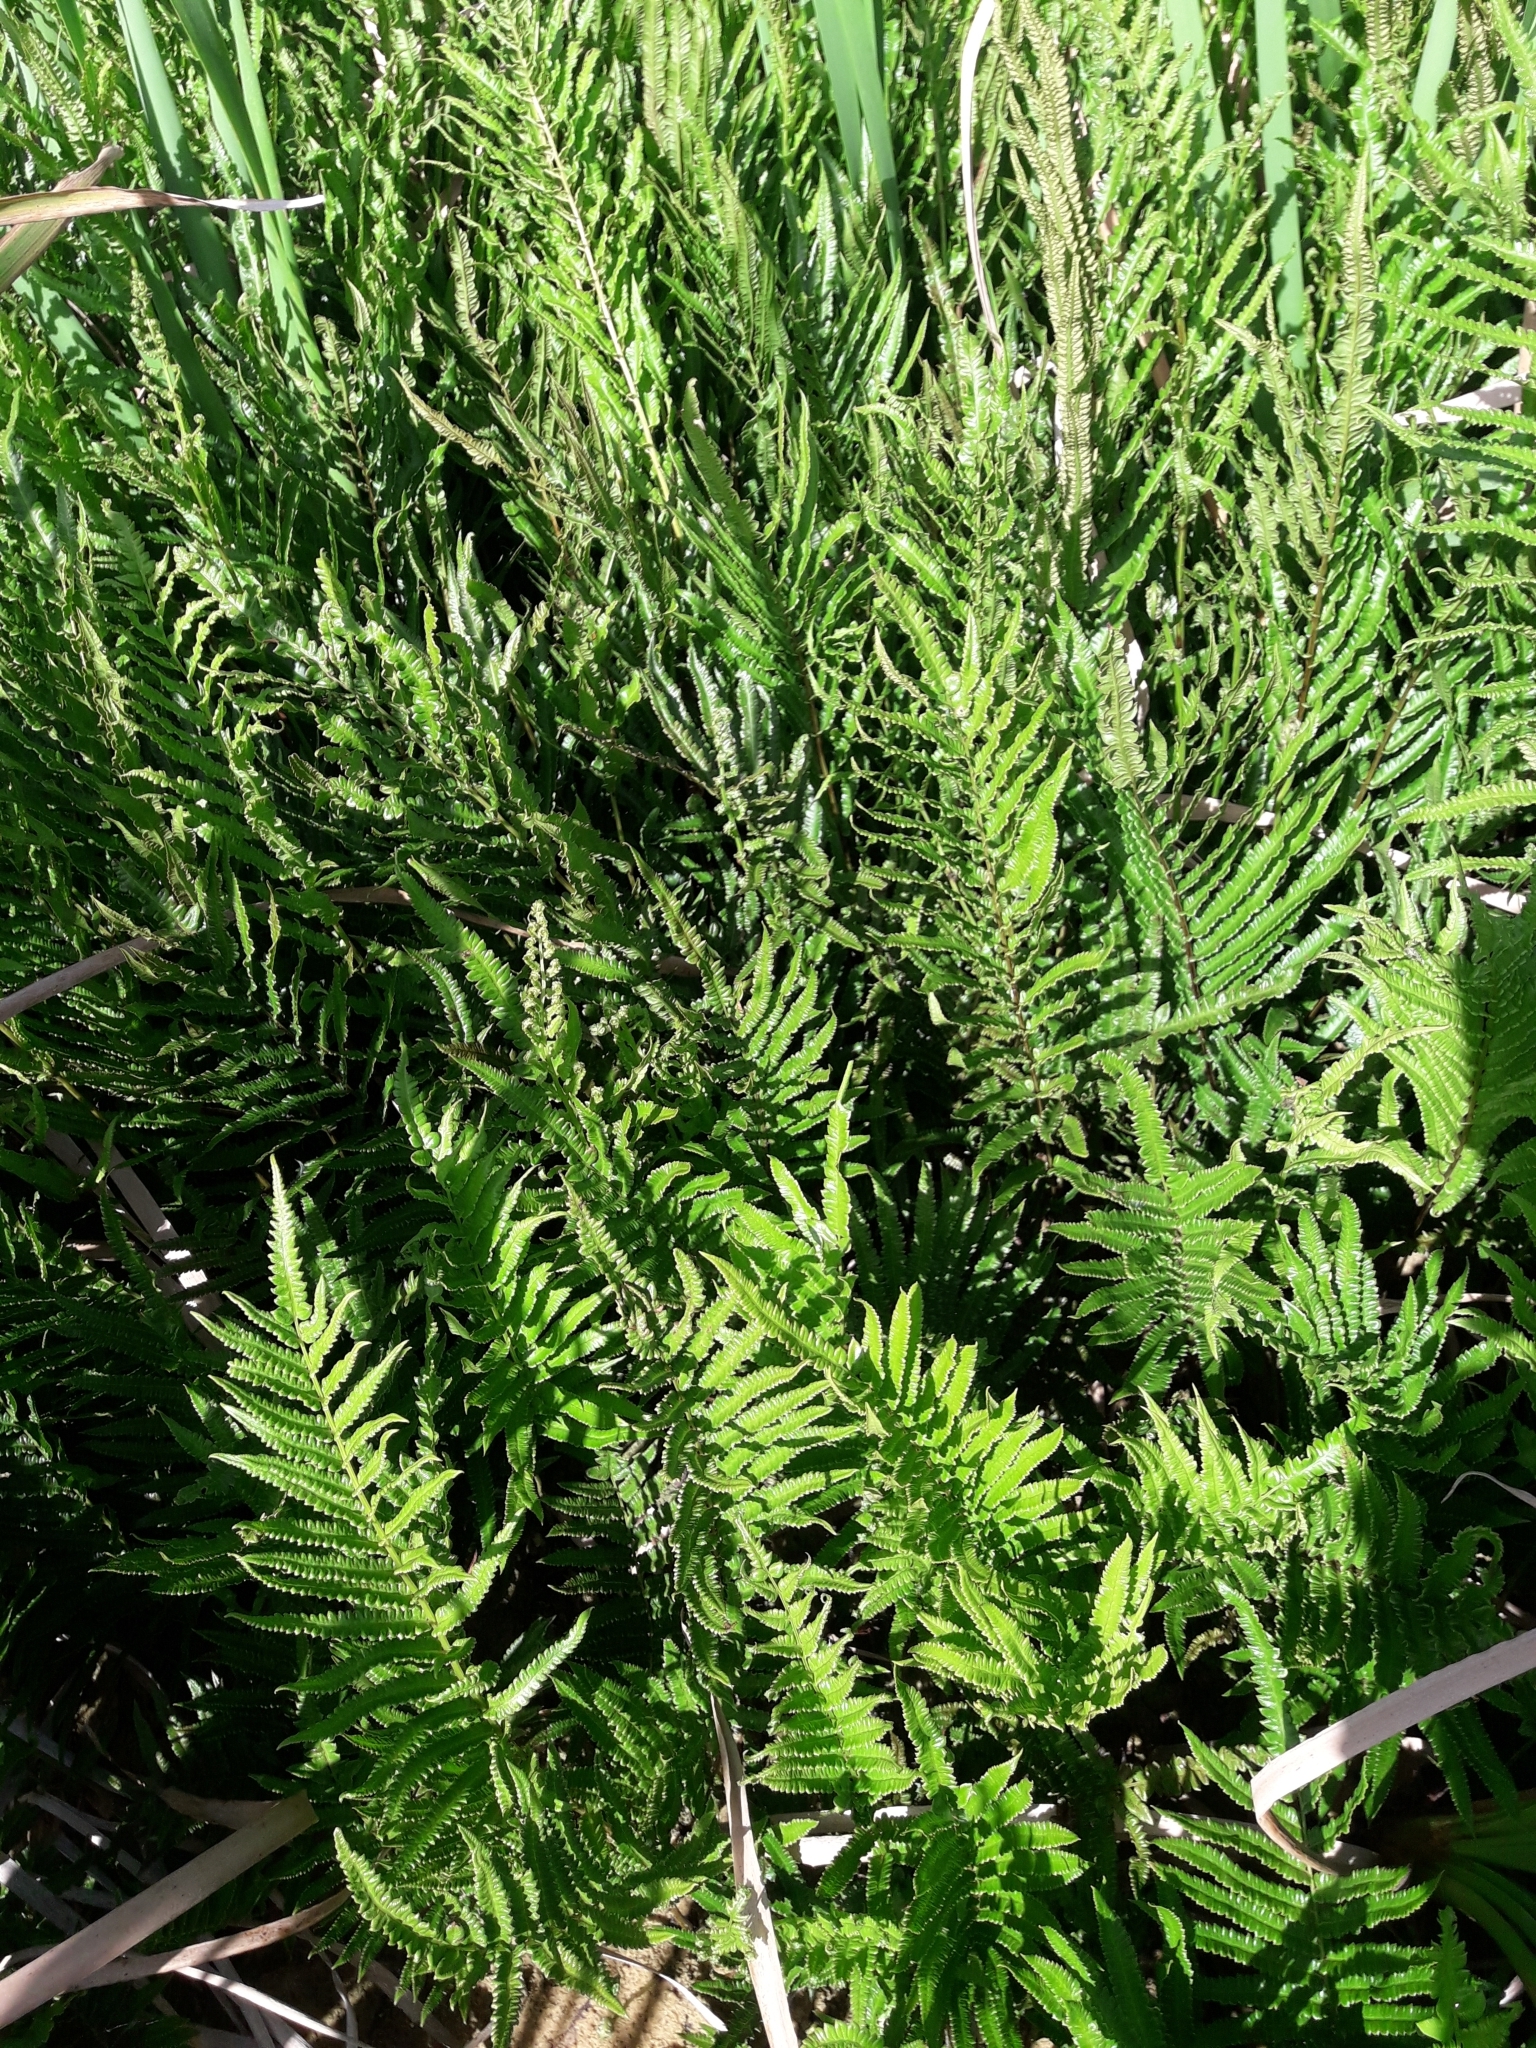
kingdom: Plantae
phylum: Tracheophyta
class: Polypodiopsida
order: Polypodiales
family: Thelypteridaceae
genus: Cyclosorus
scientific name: Cyclosorus interruptus
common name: Neke fern
